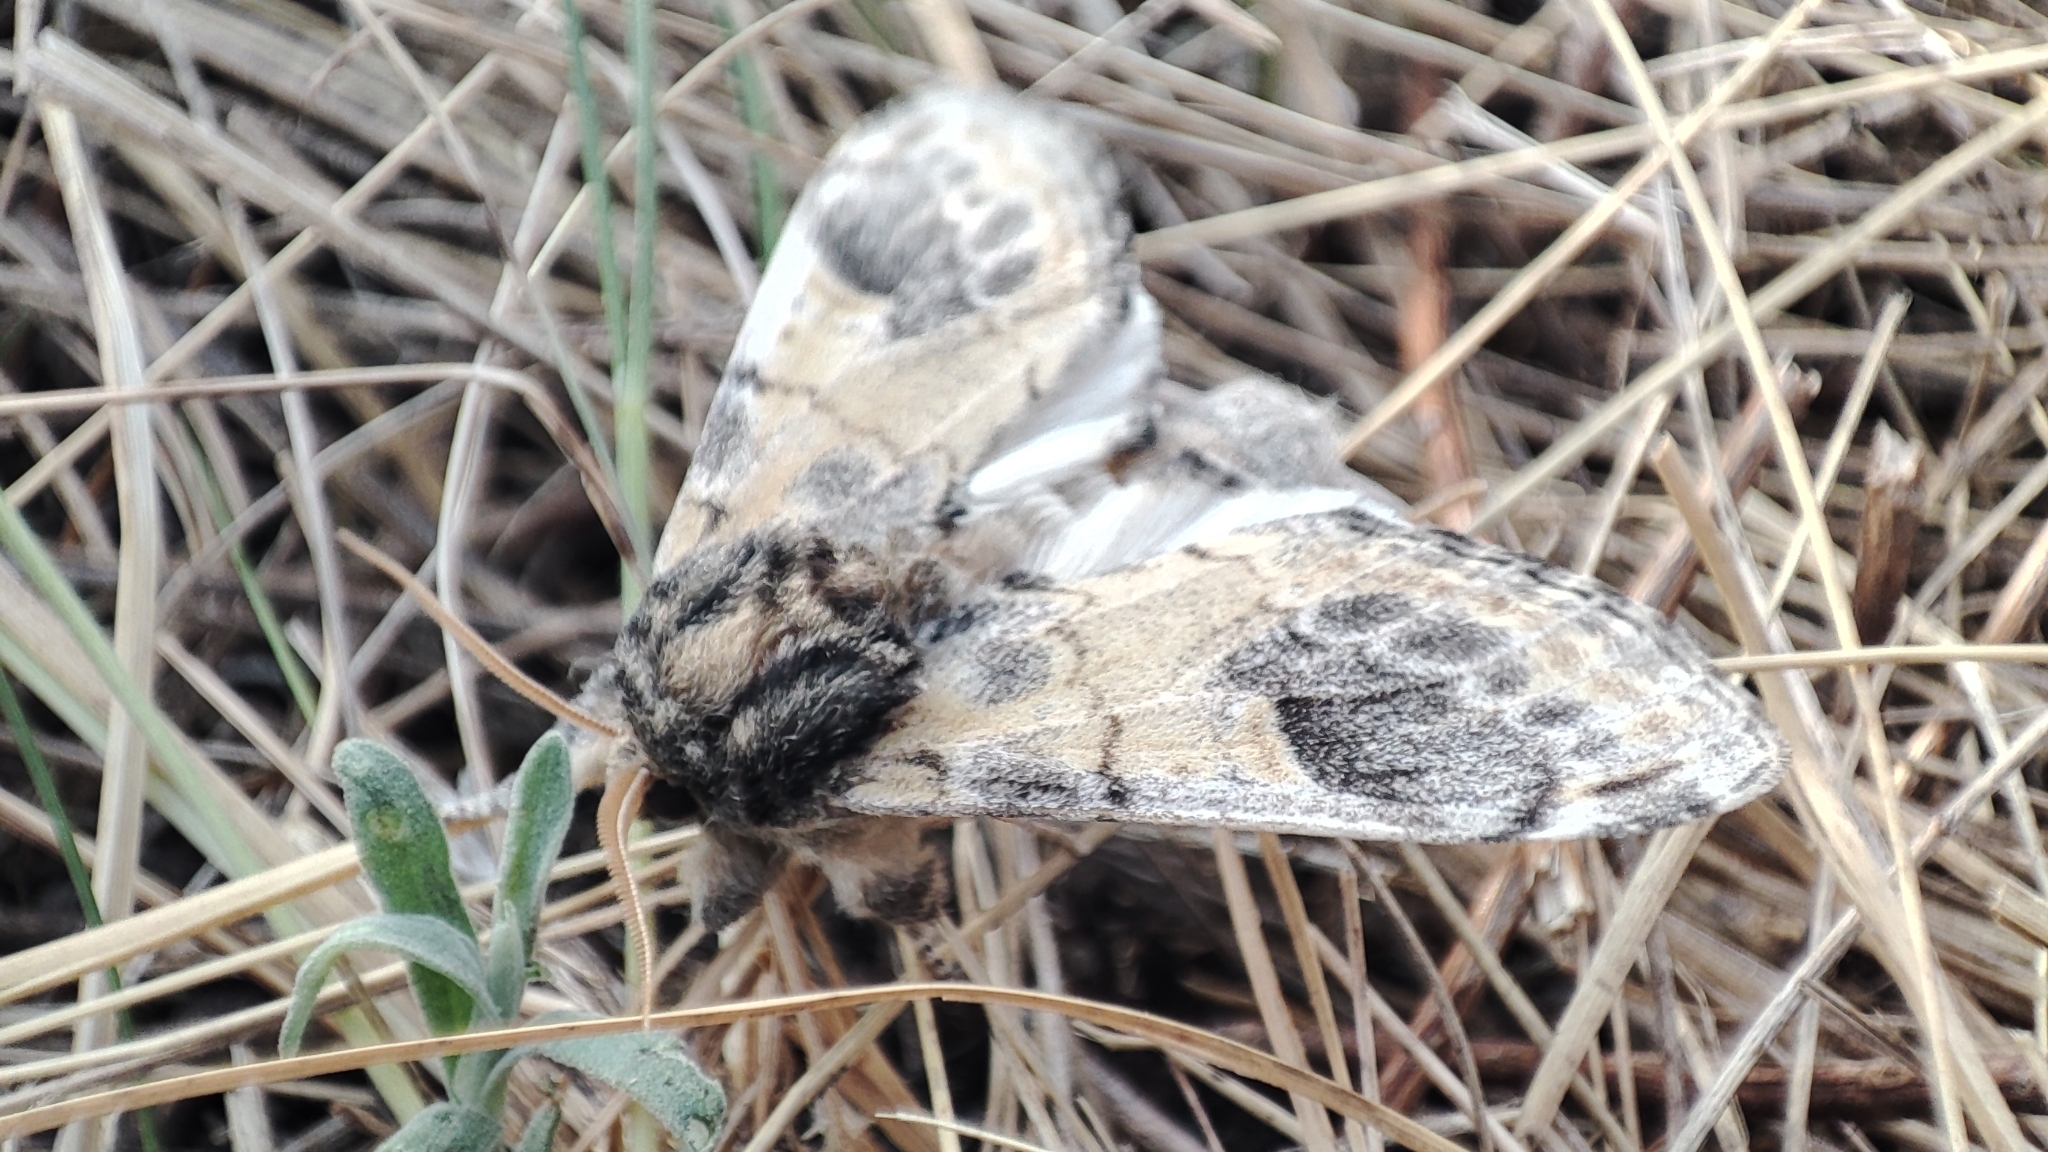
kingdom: Animalia
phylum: Arthropoda
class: Insecta
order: Lepidoptera
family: Notodontidae
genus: Notodonta
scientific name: Notodonta tritophus
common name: Three-humped prominent
